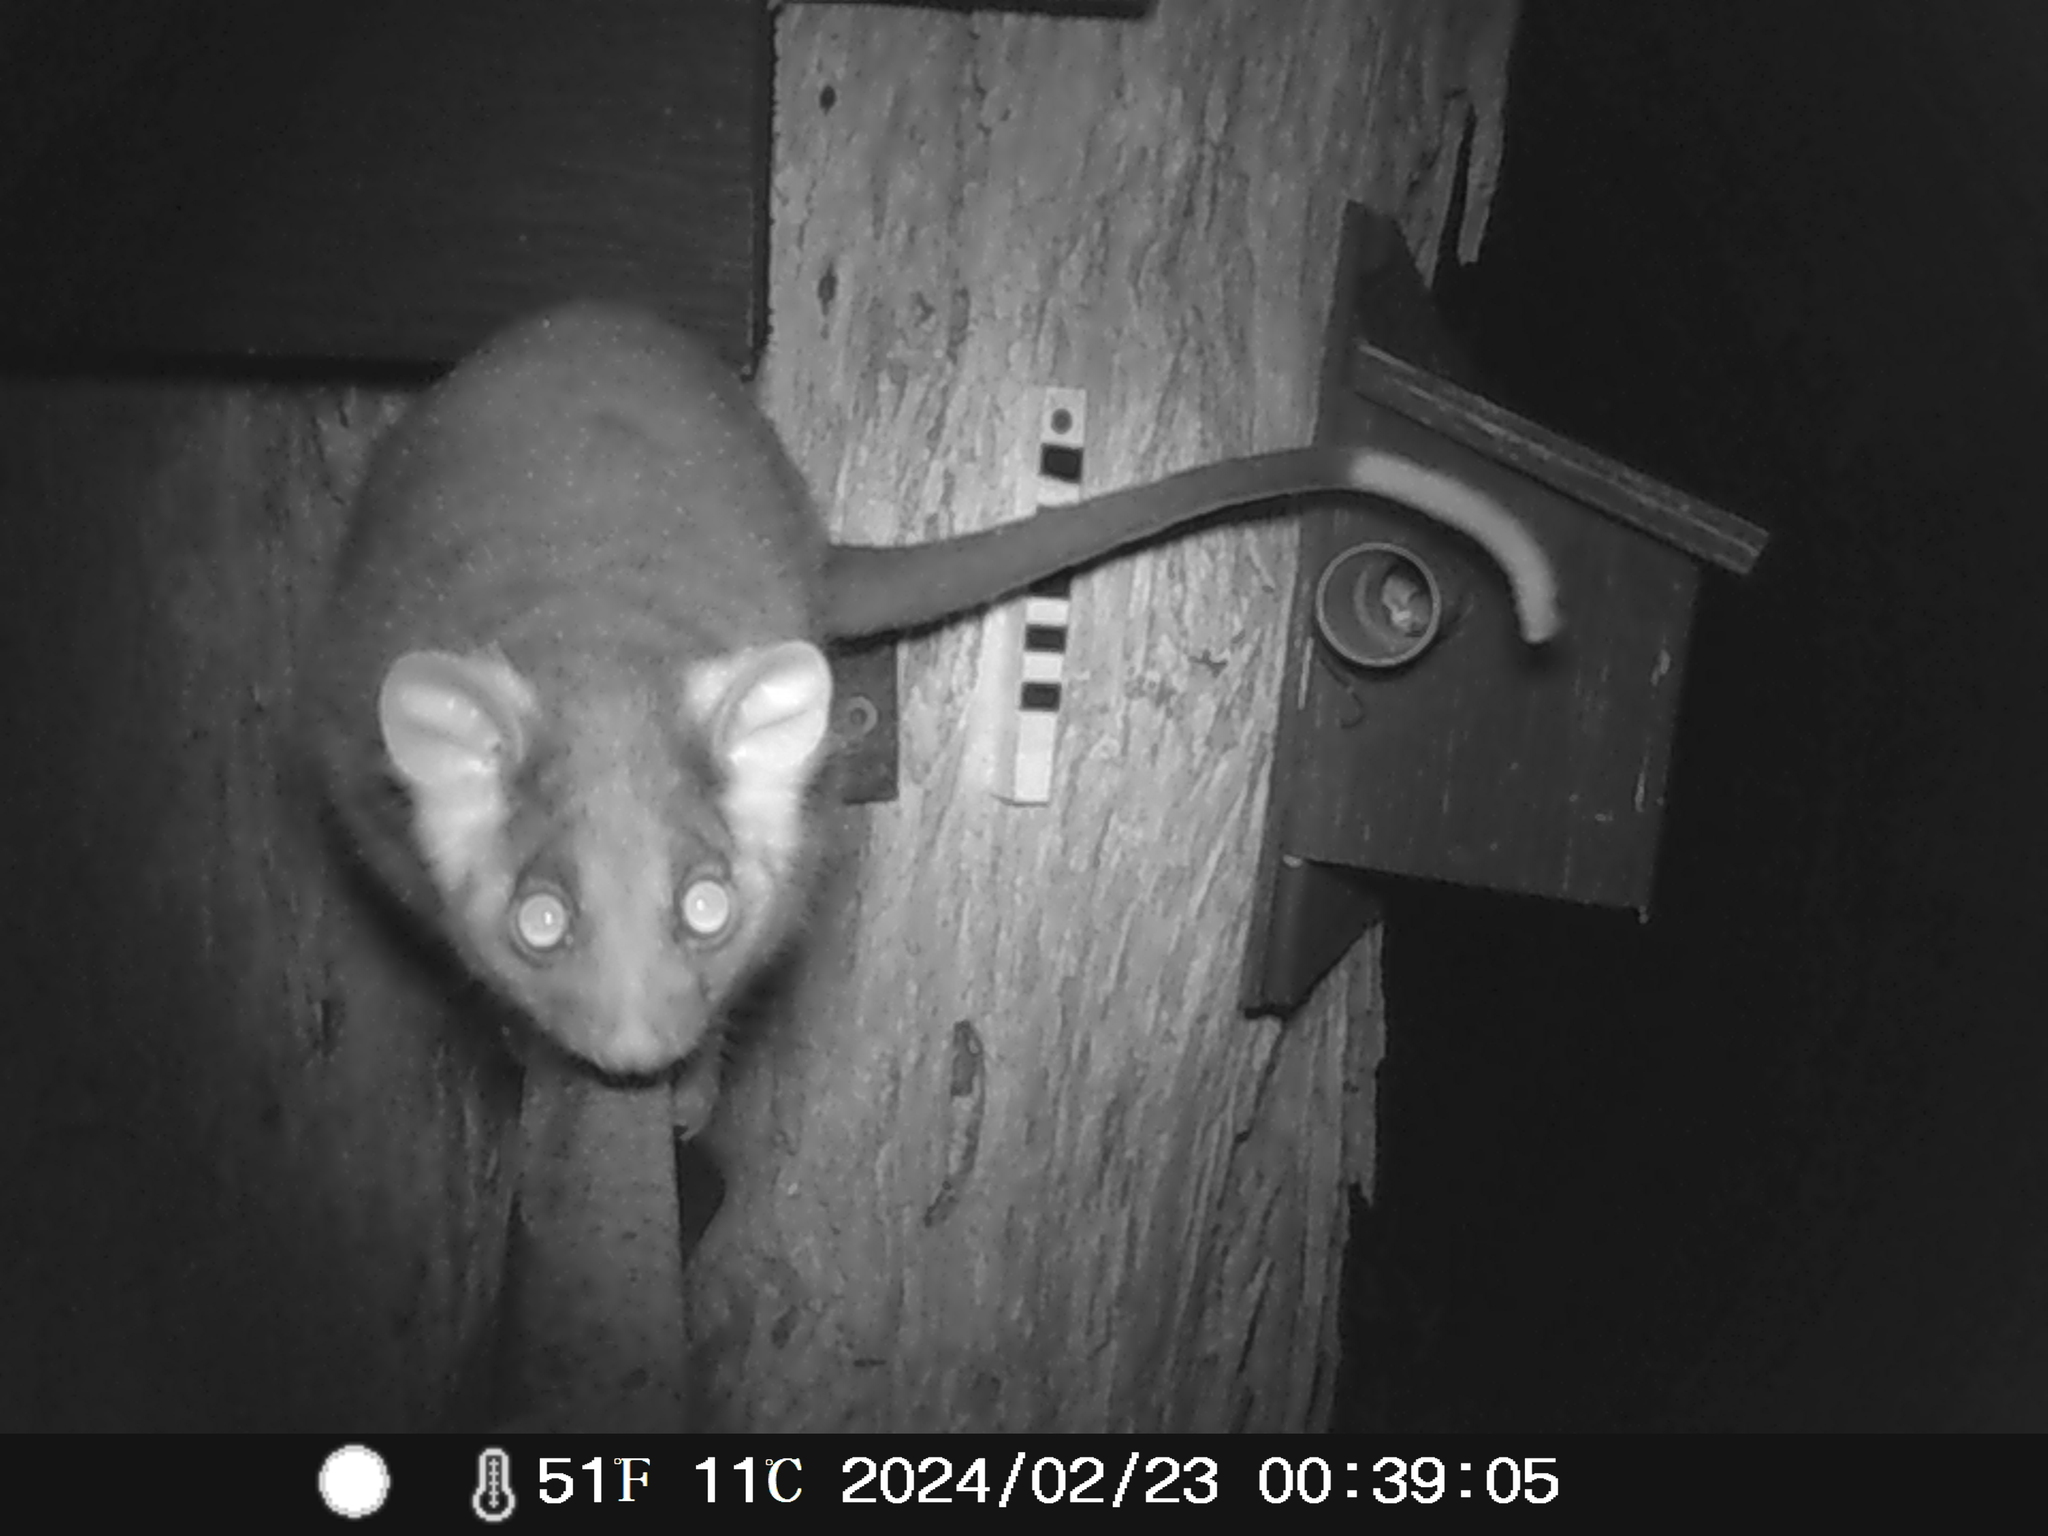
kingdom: Animalia
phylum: Chordata
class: Mammalia
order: Diprotodontia
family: Pseudocheiridae
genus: Pseudocheirus
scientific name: Pseudocheirus peregrinus
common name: Common ringtail possum
